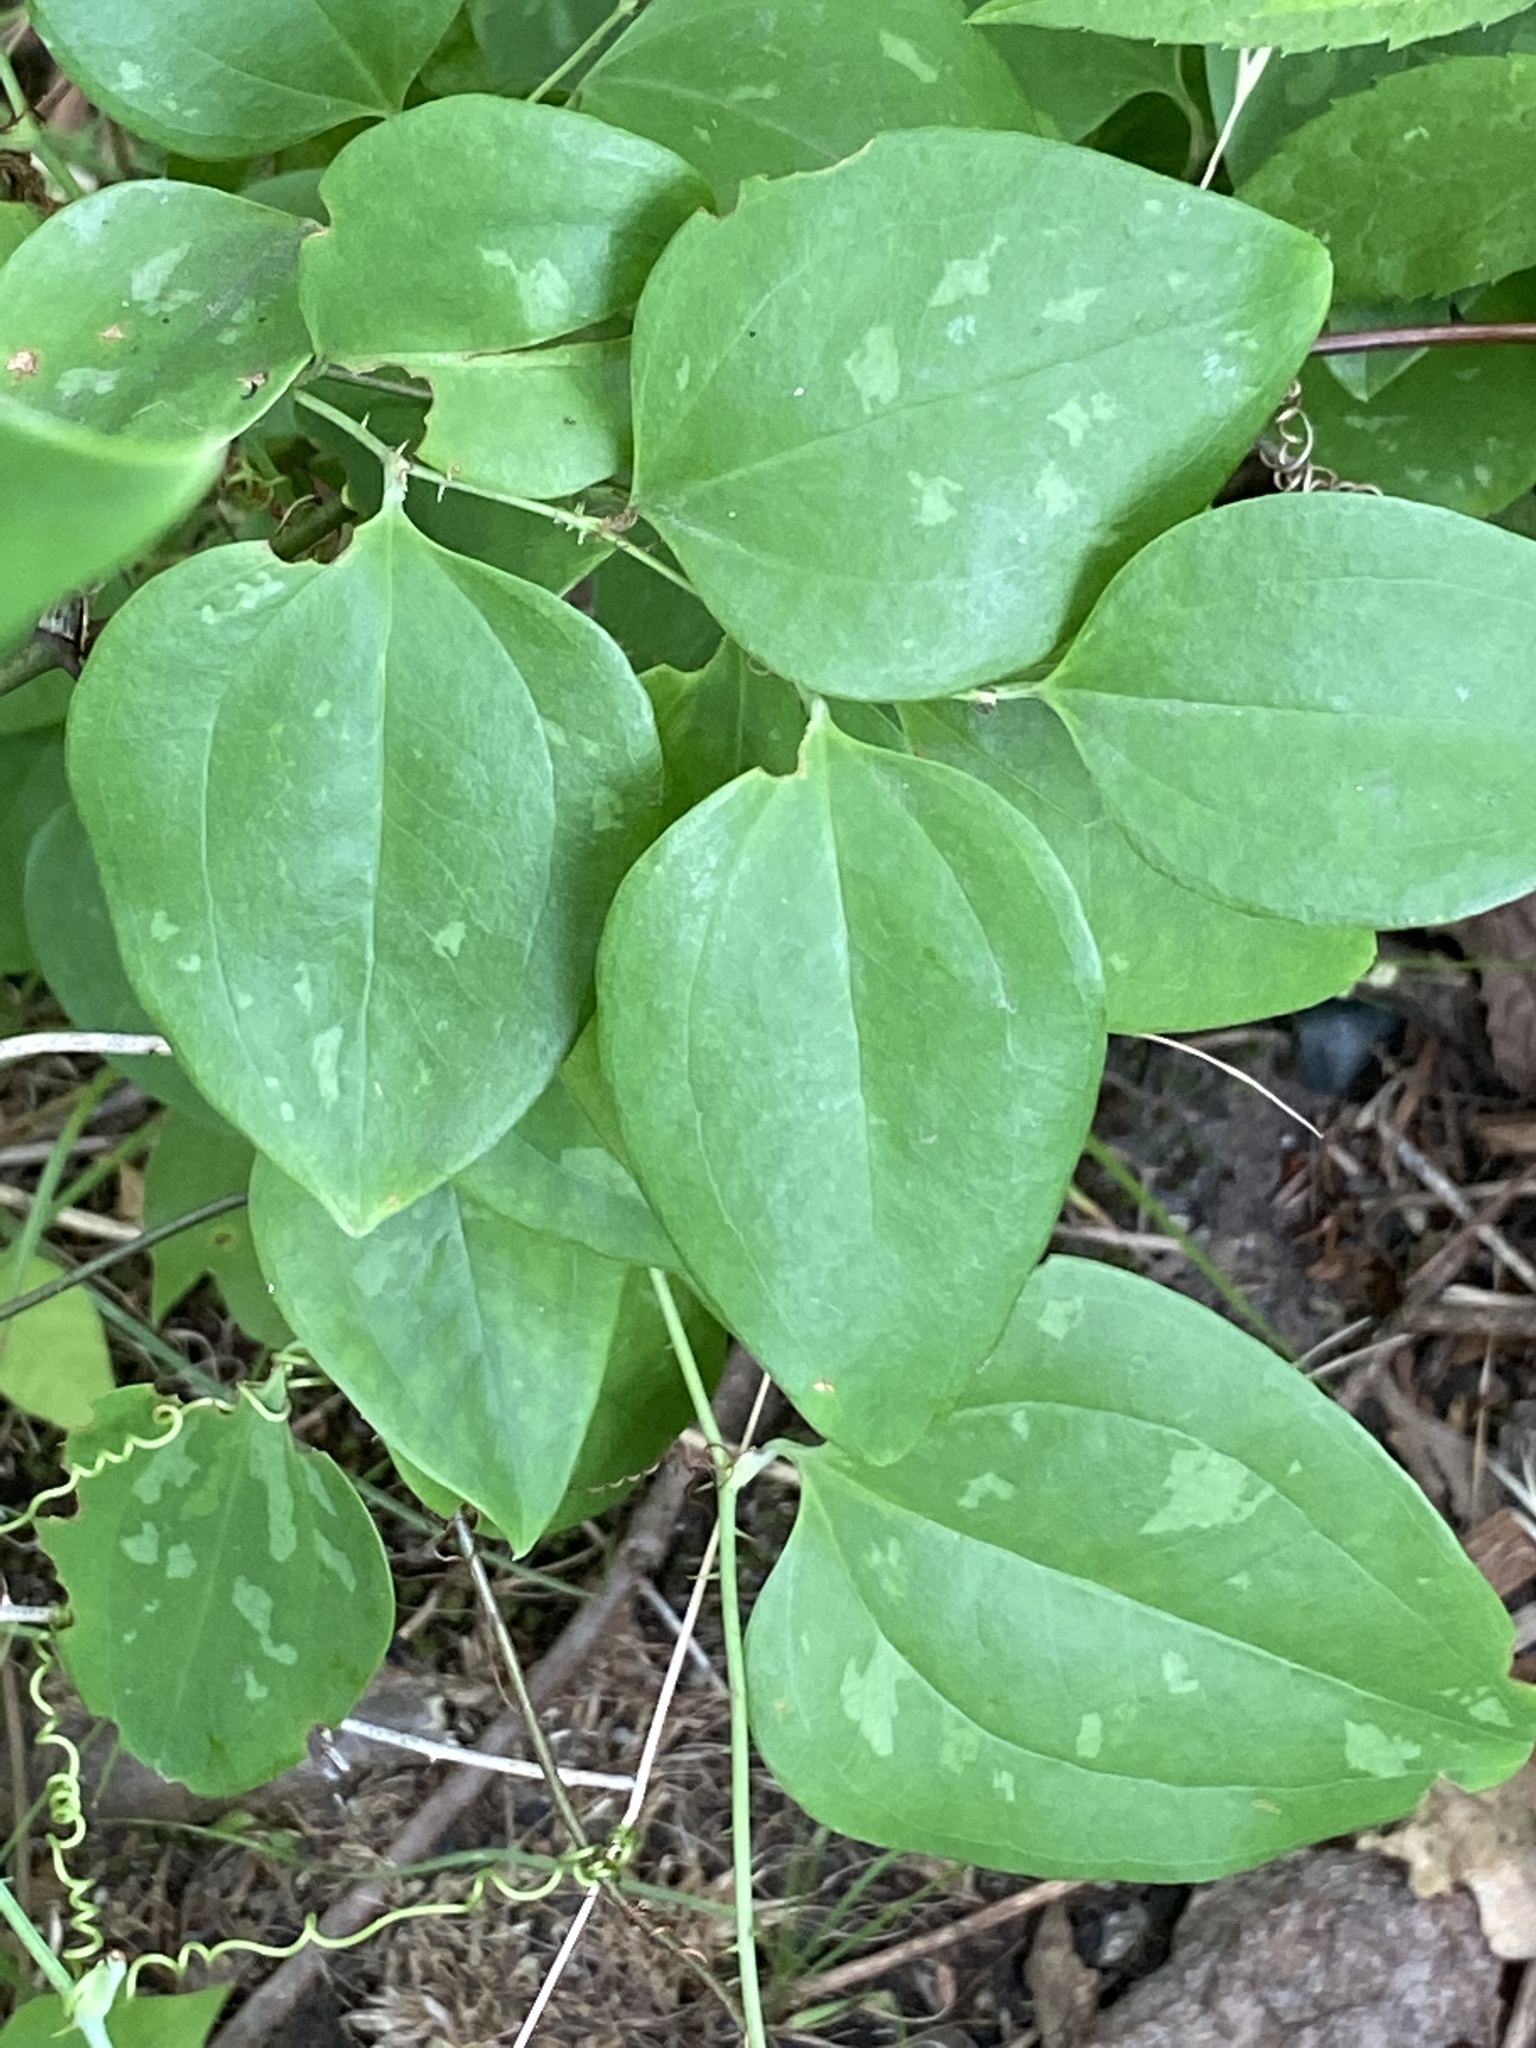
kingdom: Plantae
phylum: Tracheophyta
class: Liliopsida
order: Liliales
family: Smilacaceae
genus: Smilax
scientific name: Smilax glauca
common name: Cat greenbrier
